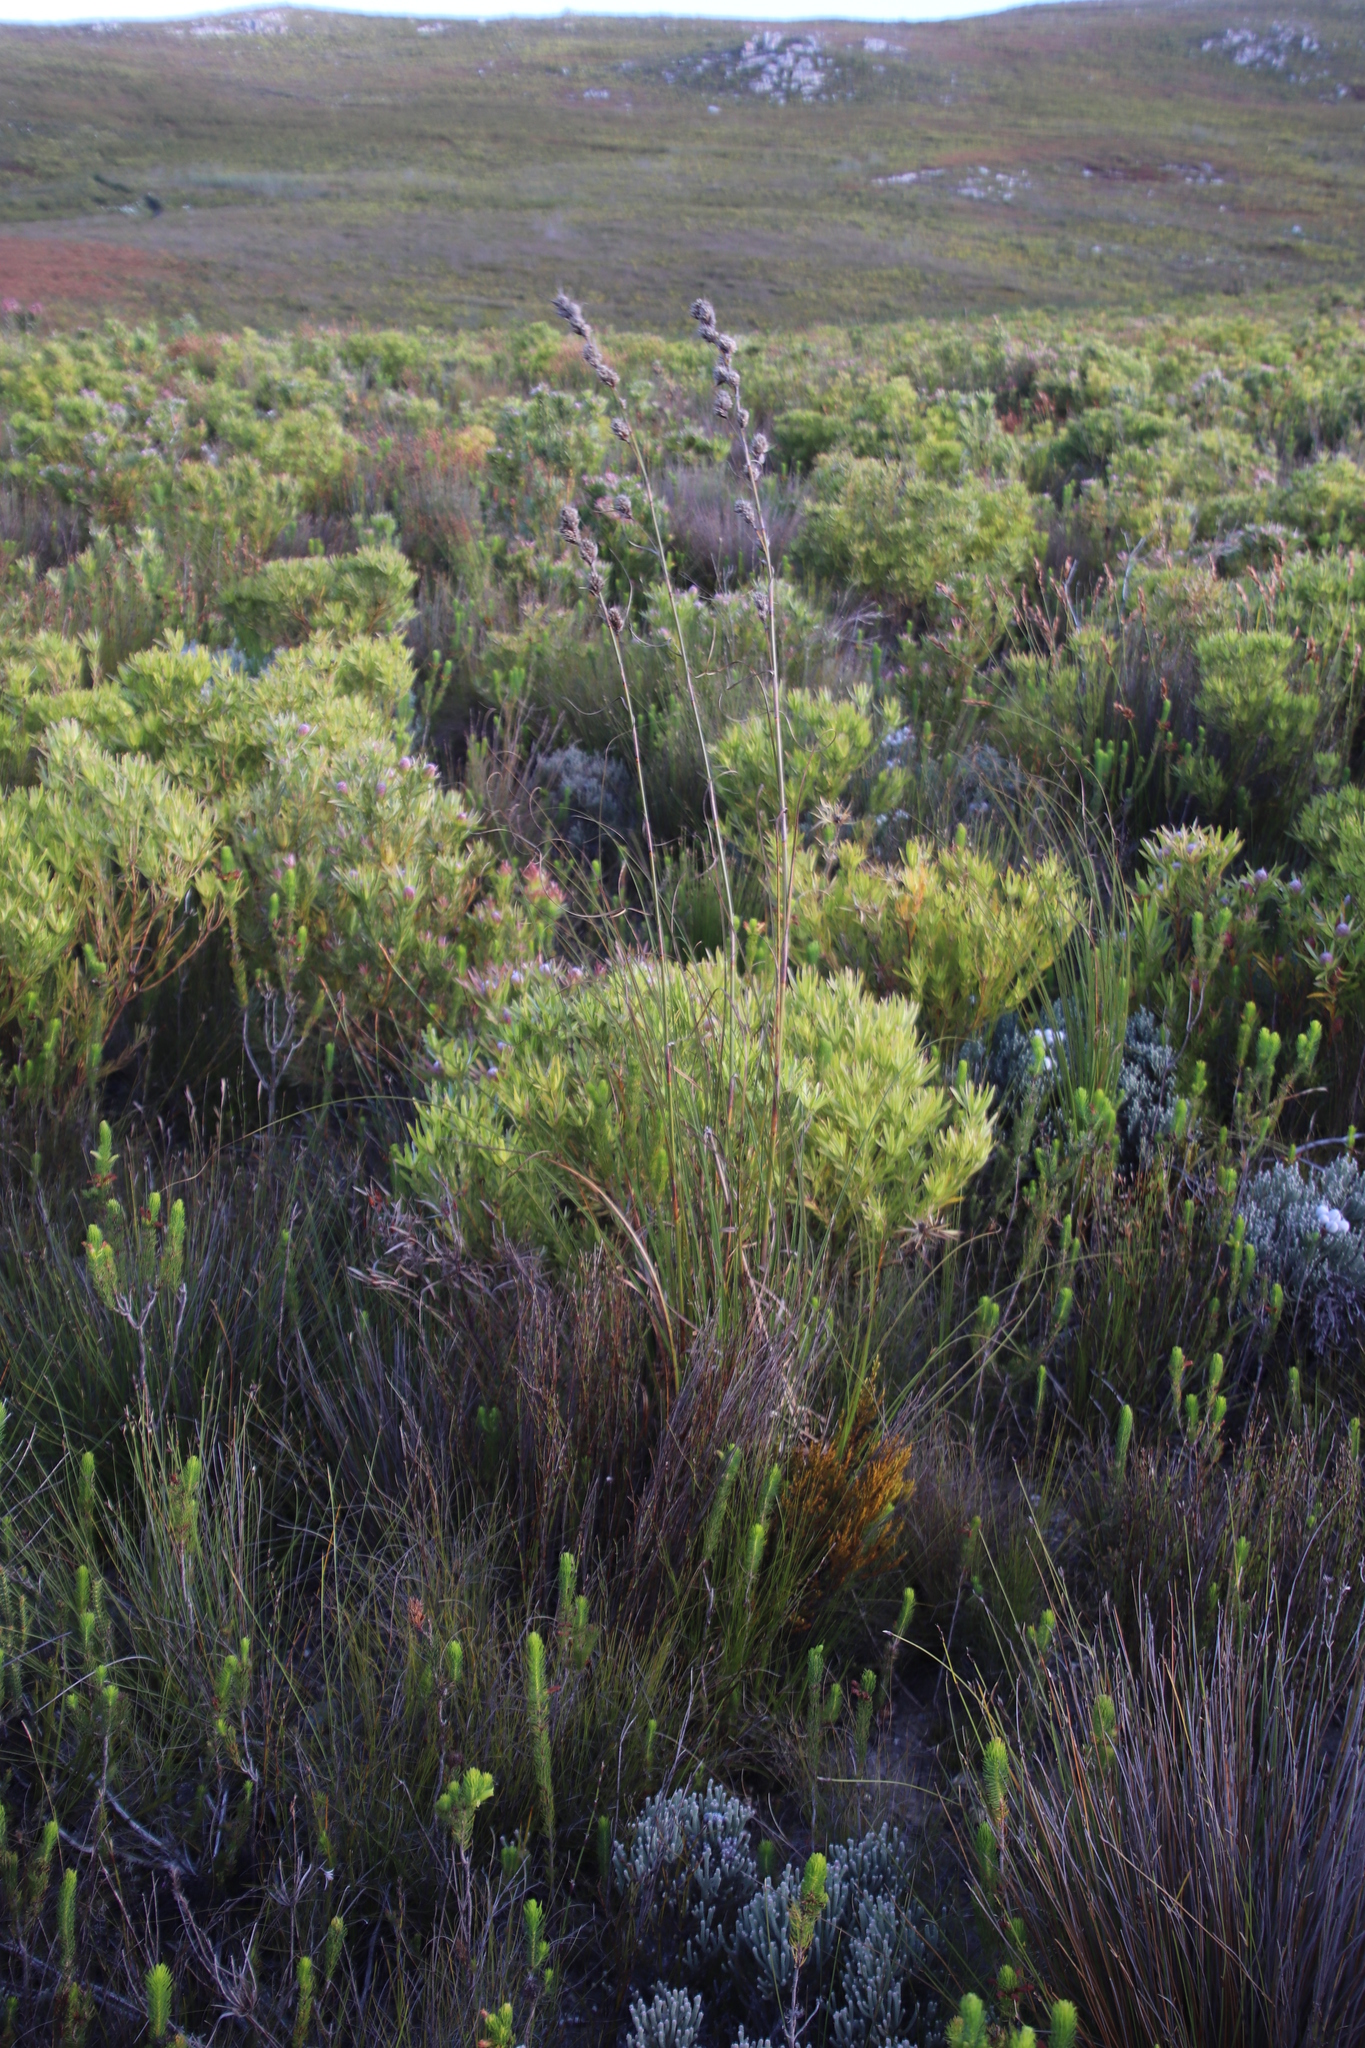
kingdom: Plantae
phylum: Tracheophyta
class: Liliopsida
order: Poales
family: Cyperaceae
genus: Tetraria
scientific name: Tetraria bromoides
